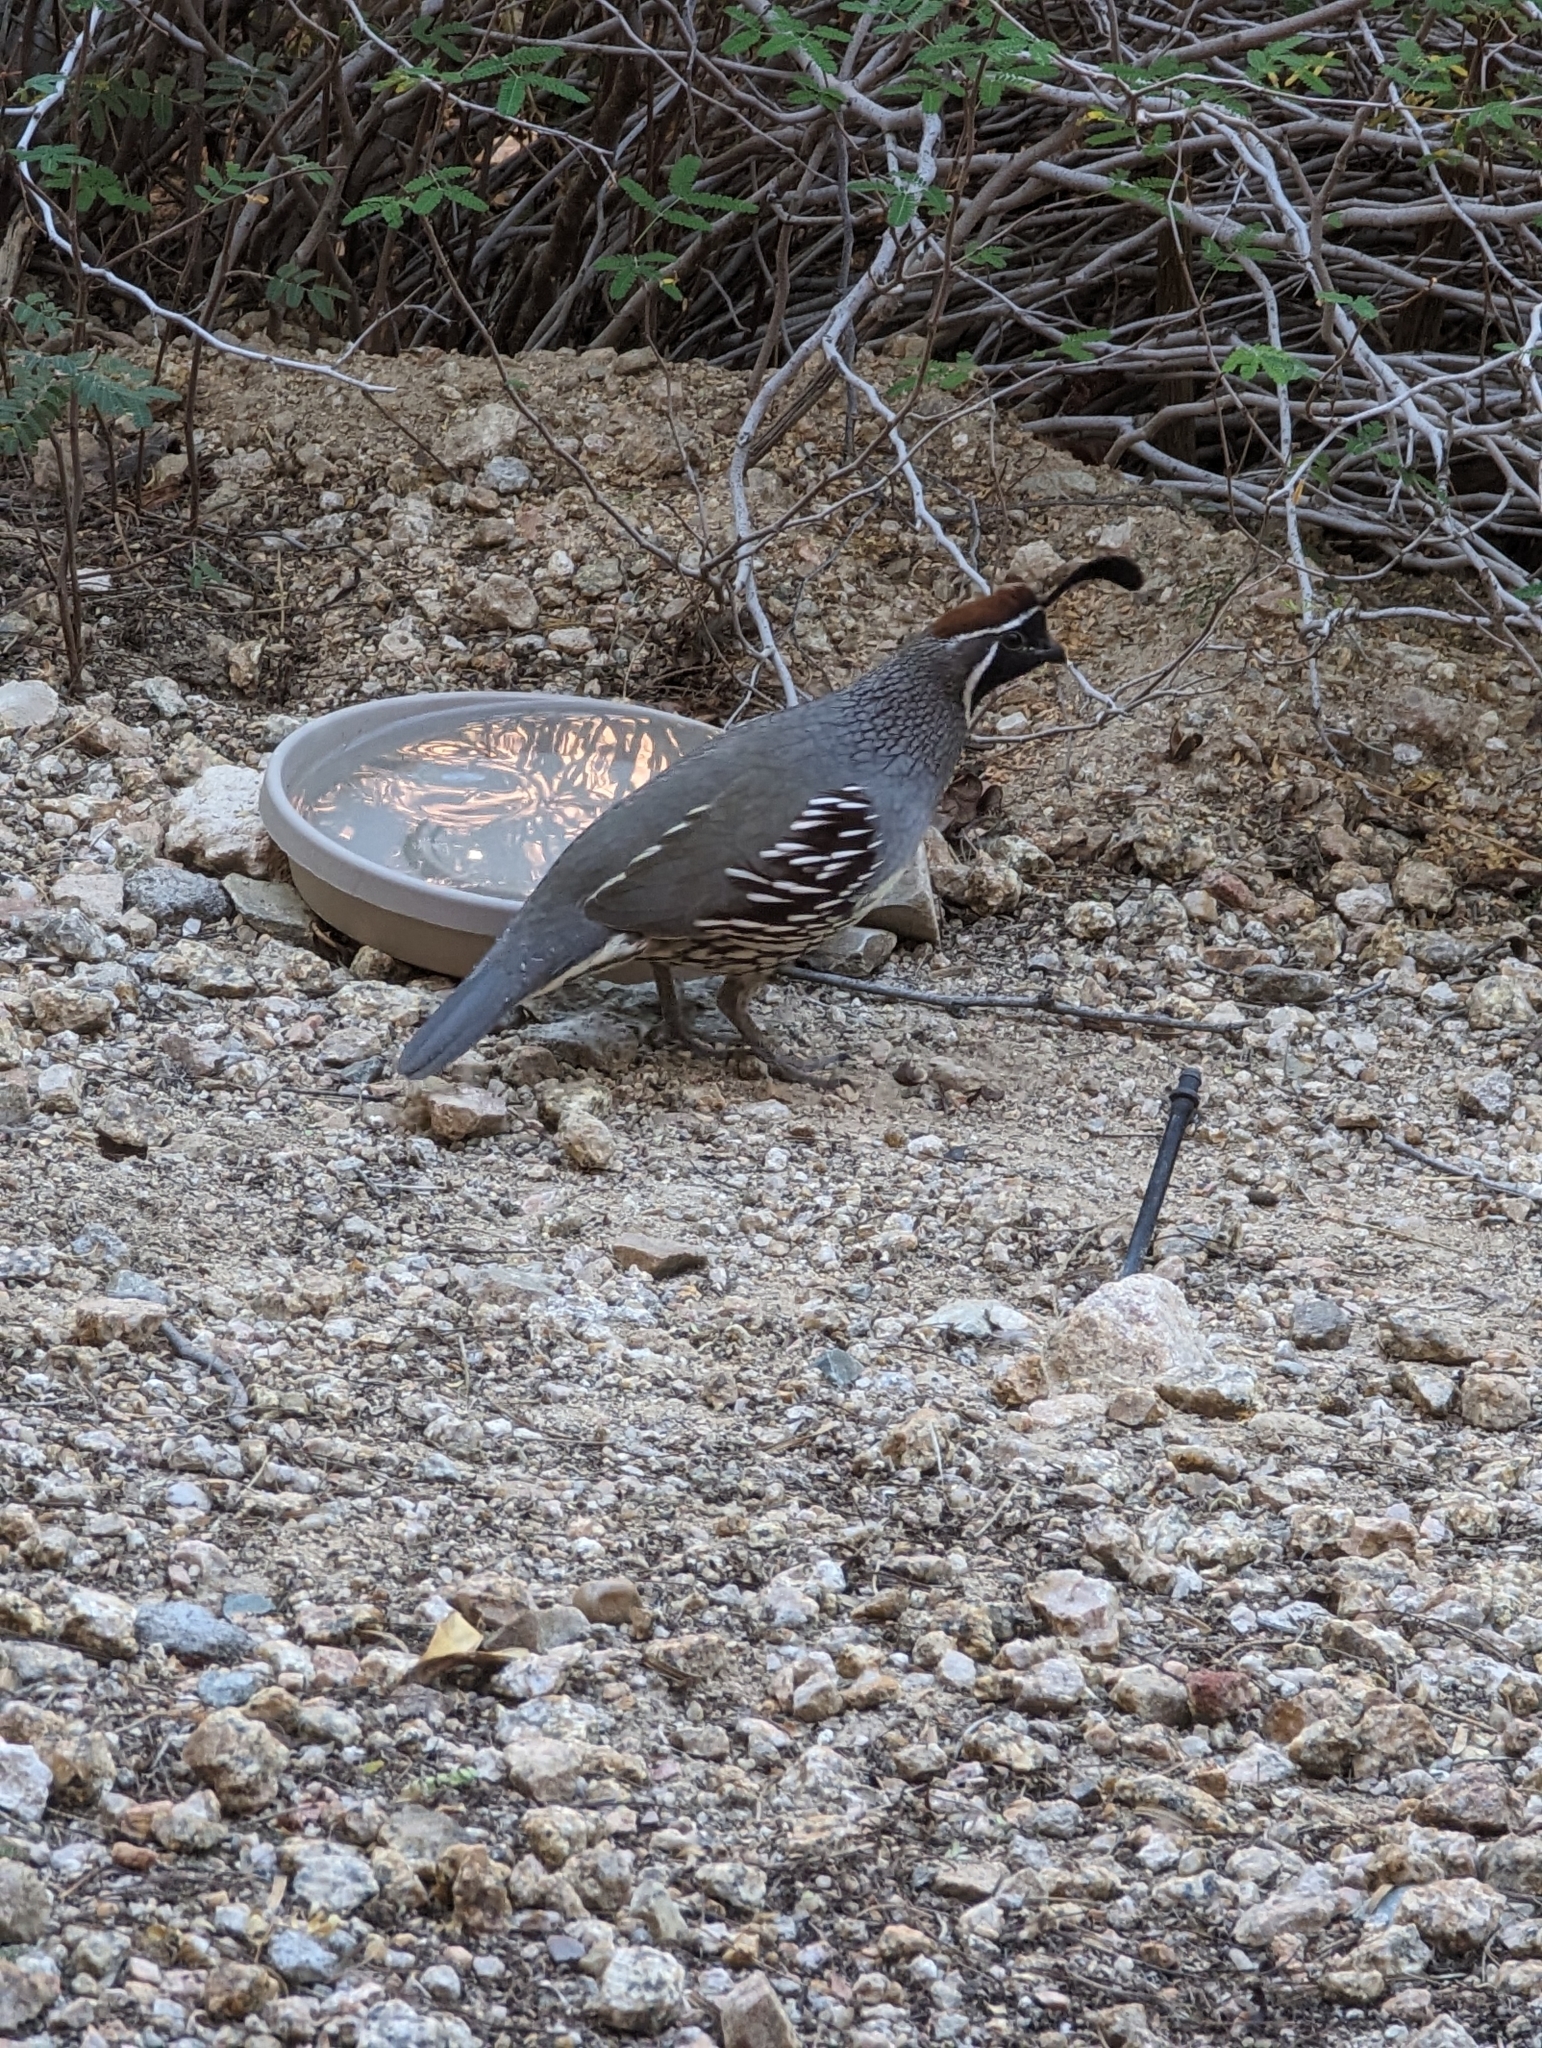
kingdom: Animalia
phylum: Chordata
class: Aves
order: Galliformes
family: Odontophoridae
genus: Callipepla
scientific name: Callipepla gambelii
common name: Gambel's quail
